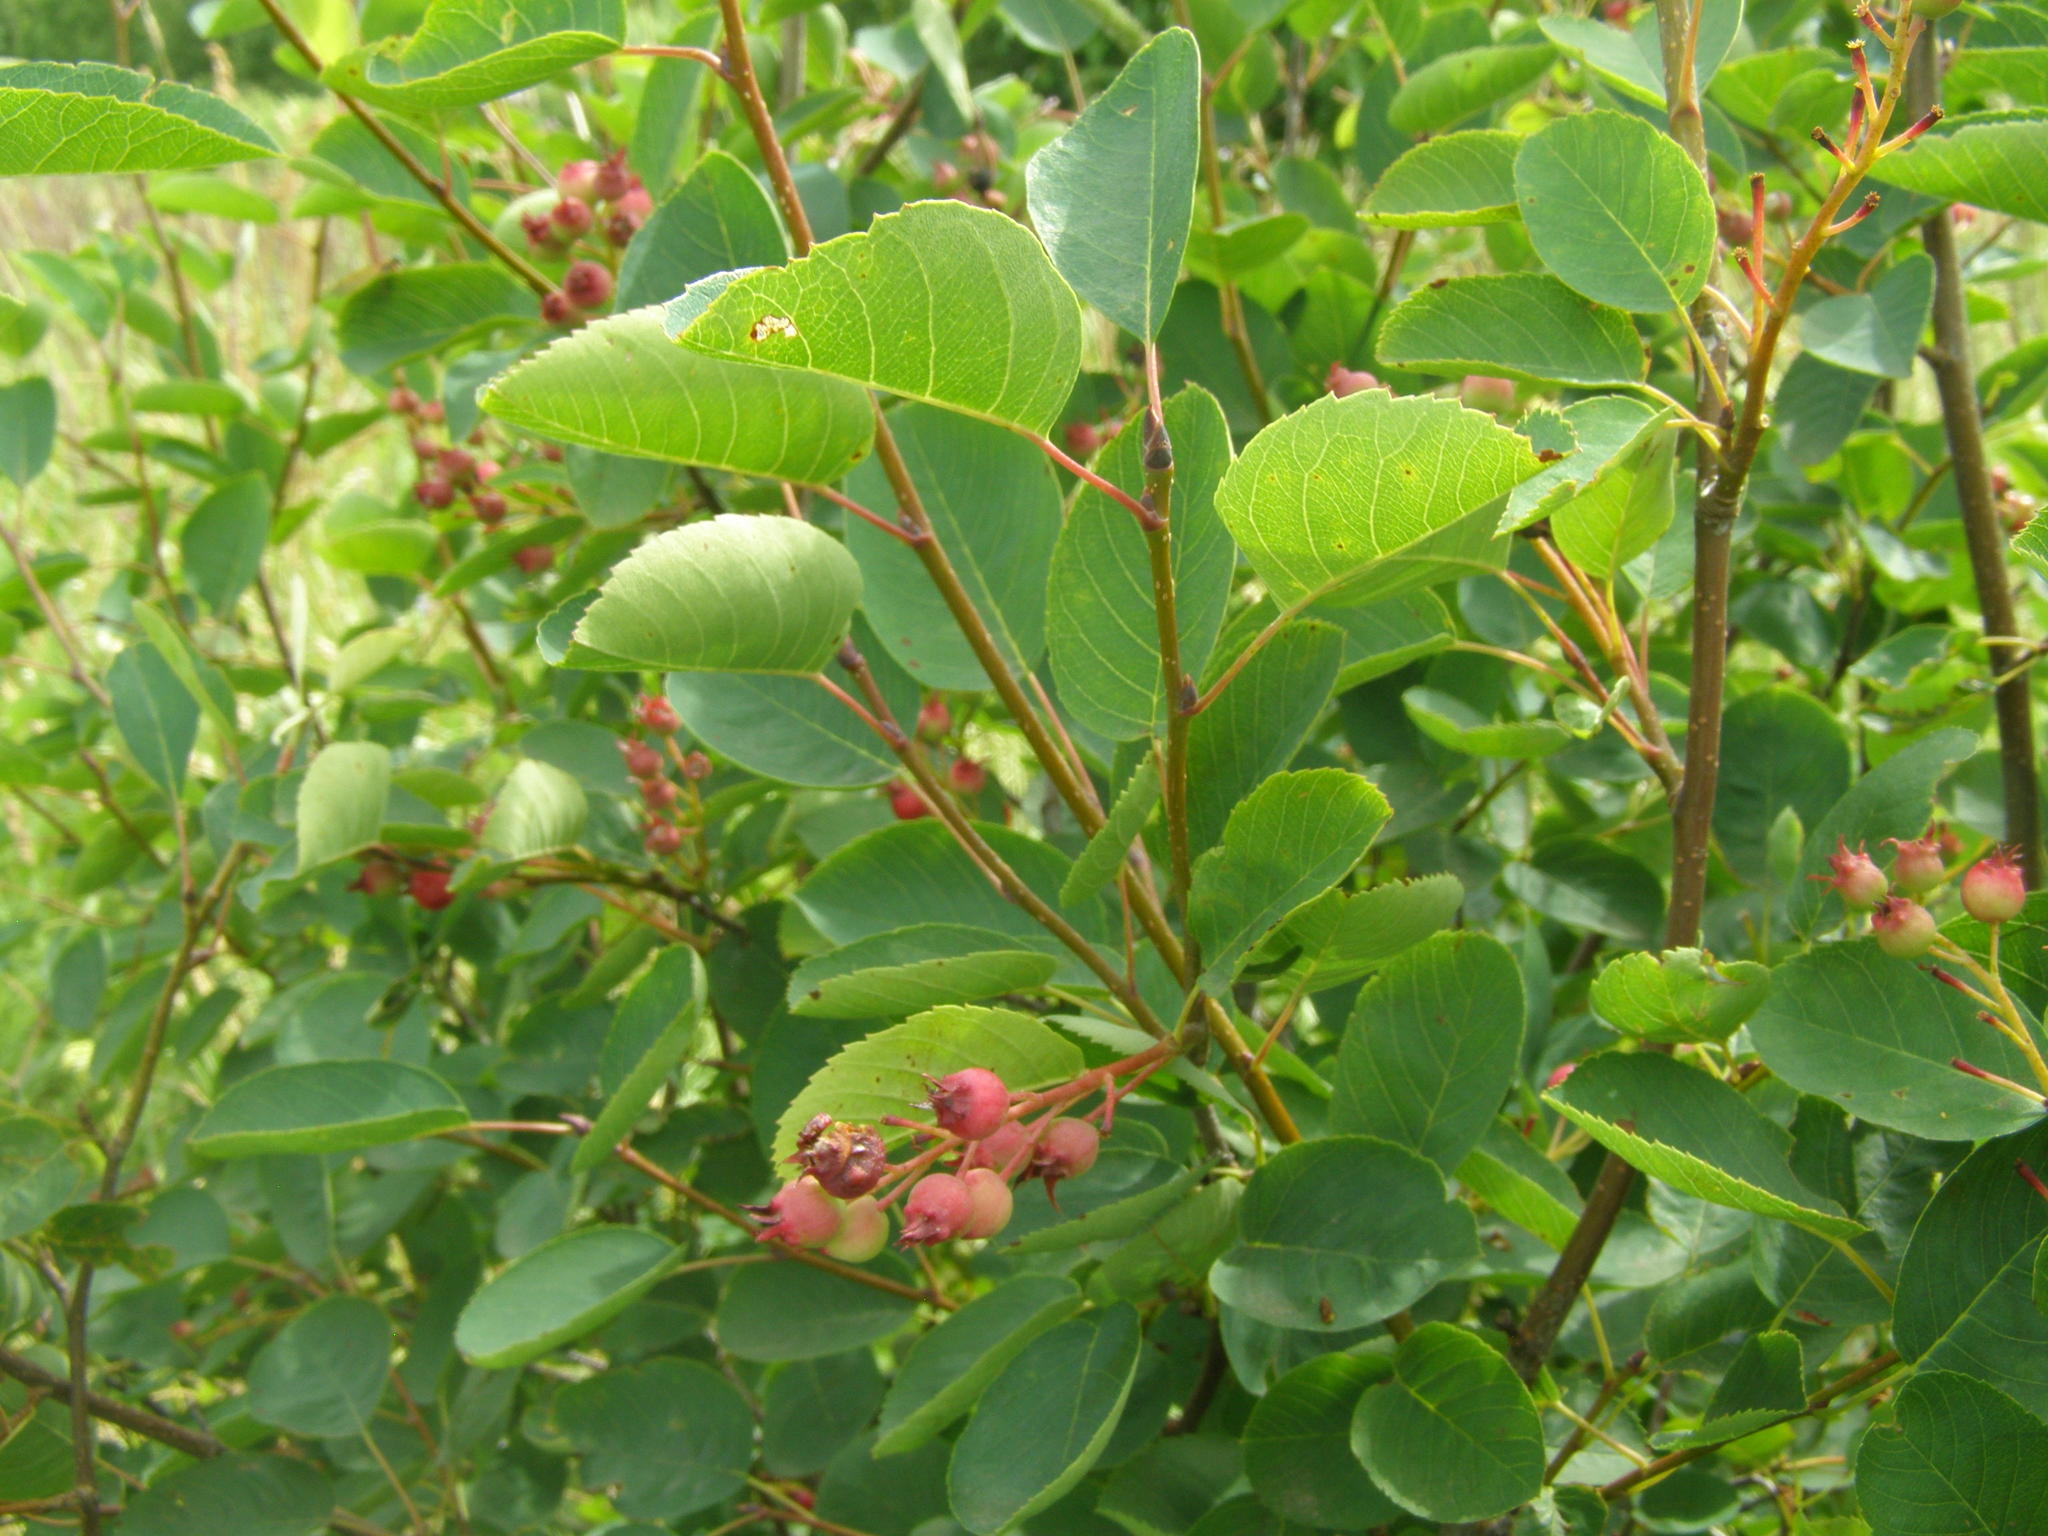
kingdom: Plantae
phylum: Tracheophyta
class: Magnoliopsida
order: Rosales
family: Rosaceae
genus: Amelanchier
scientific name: Amelanchier
